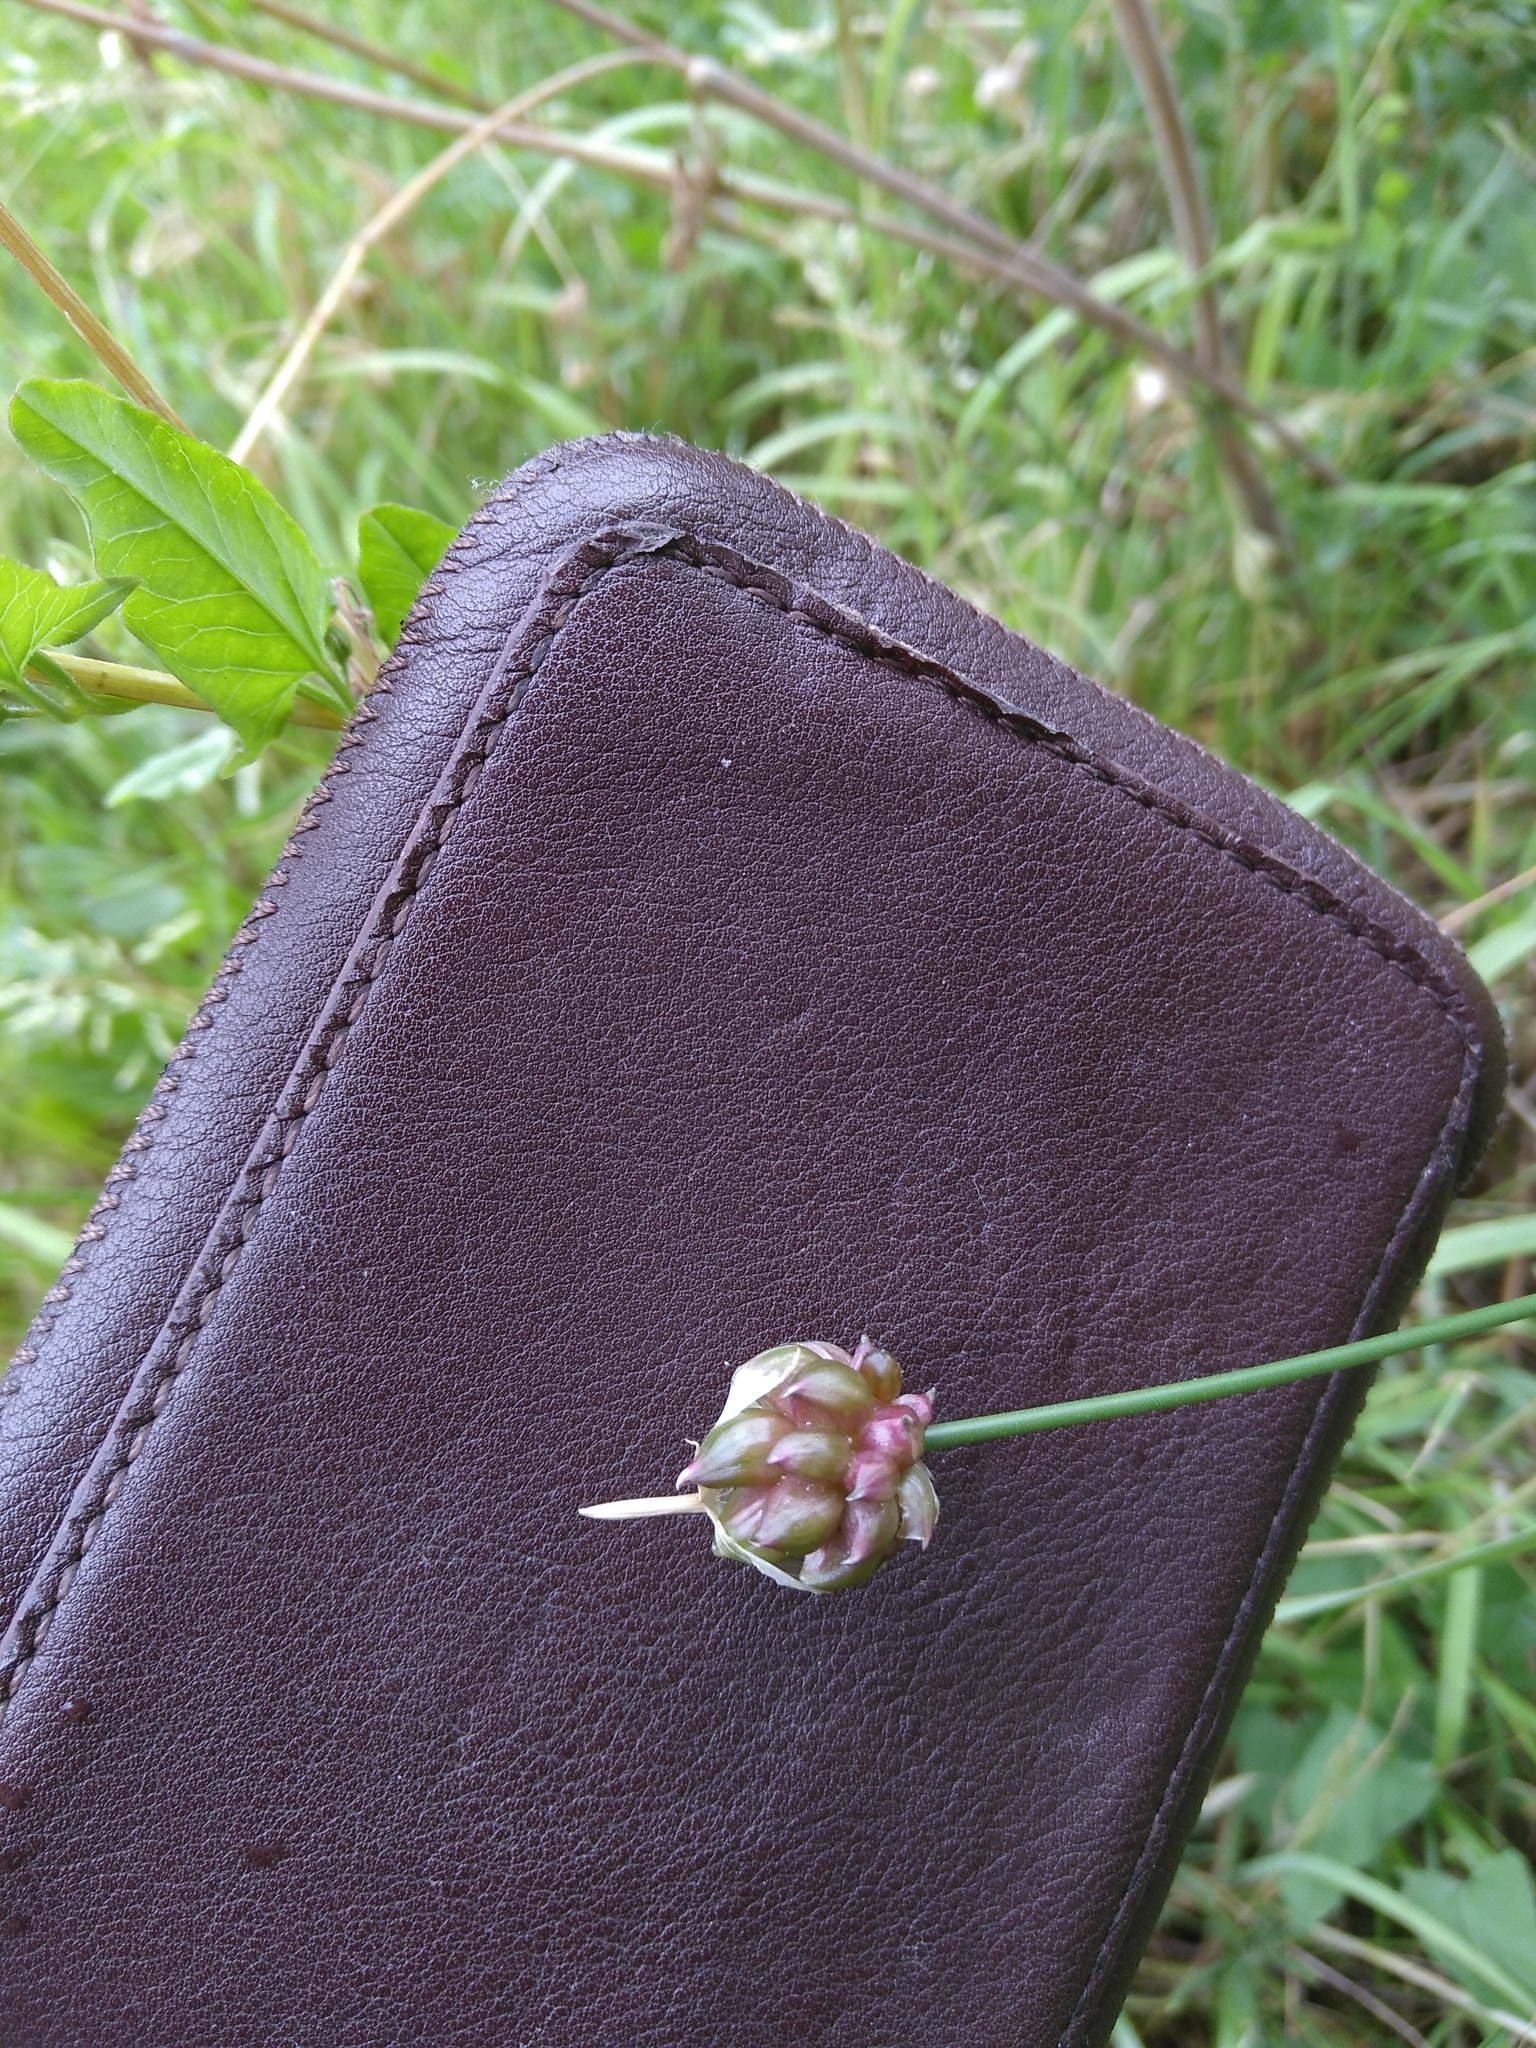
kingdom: Plantae
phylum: Tracheophyta
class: Liliopsida
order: Asparagales
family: Amaryllidaceae
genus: Allium
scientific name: Allium vineale
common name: Crow garlic
